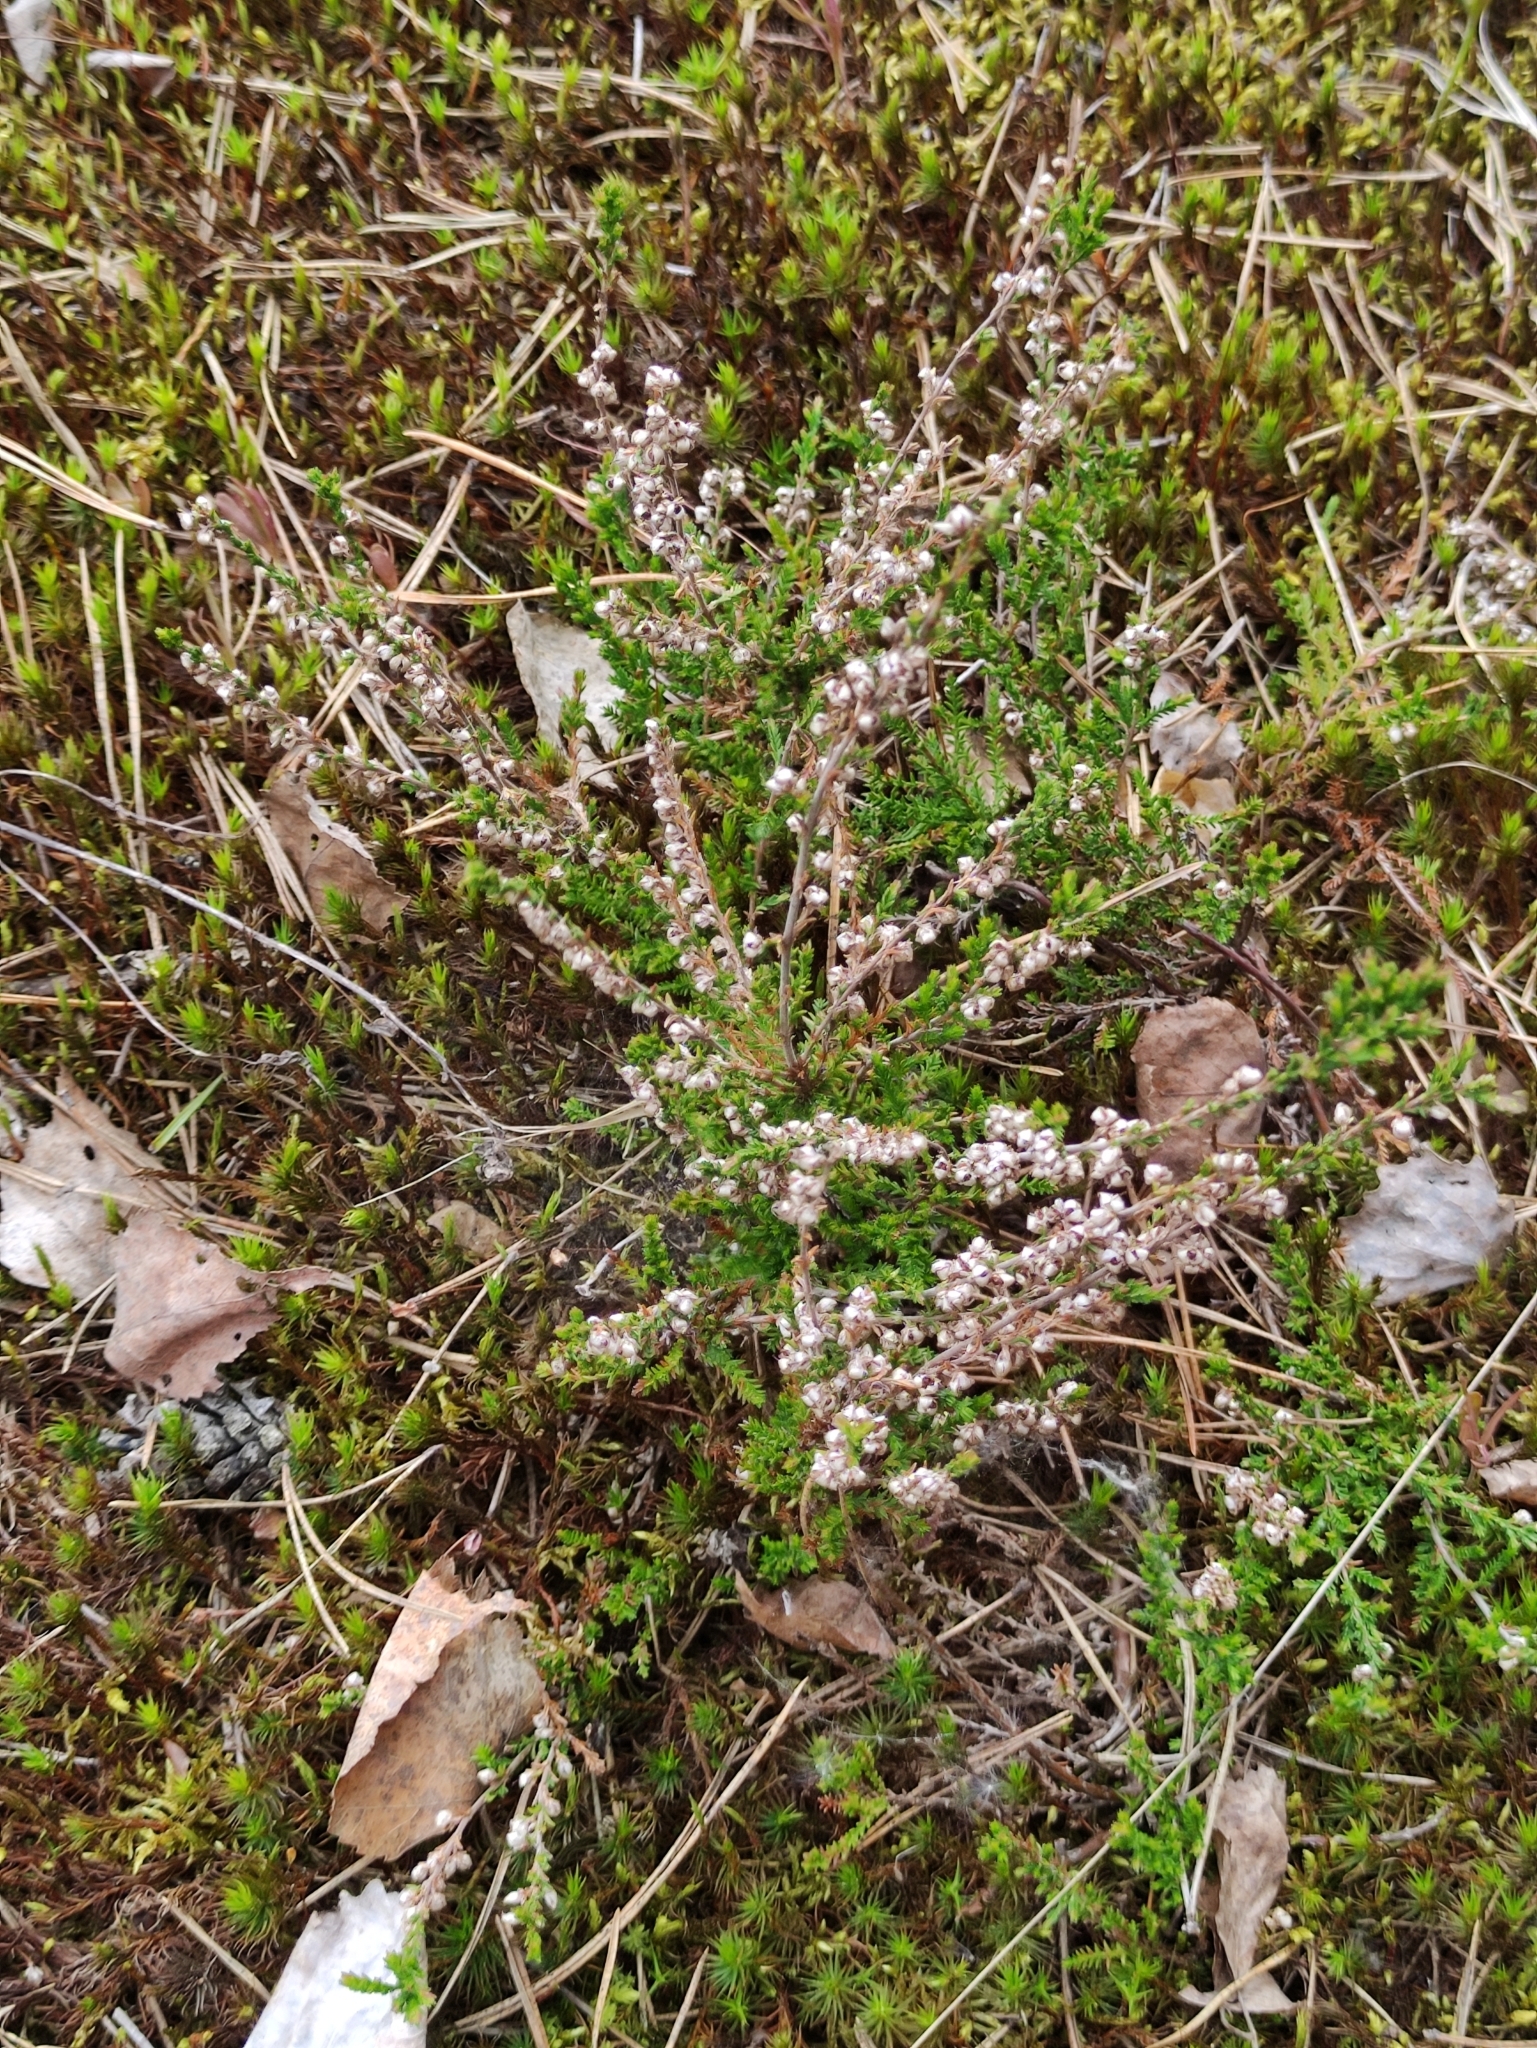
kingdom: Plantae
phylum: Tracheophyta
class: Magnoliopsida
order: Ericales
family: Ericaceae
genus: Calluna
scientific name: Calluna vulgaris
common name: Heather
